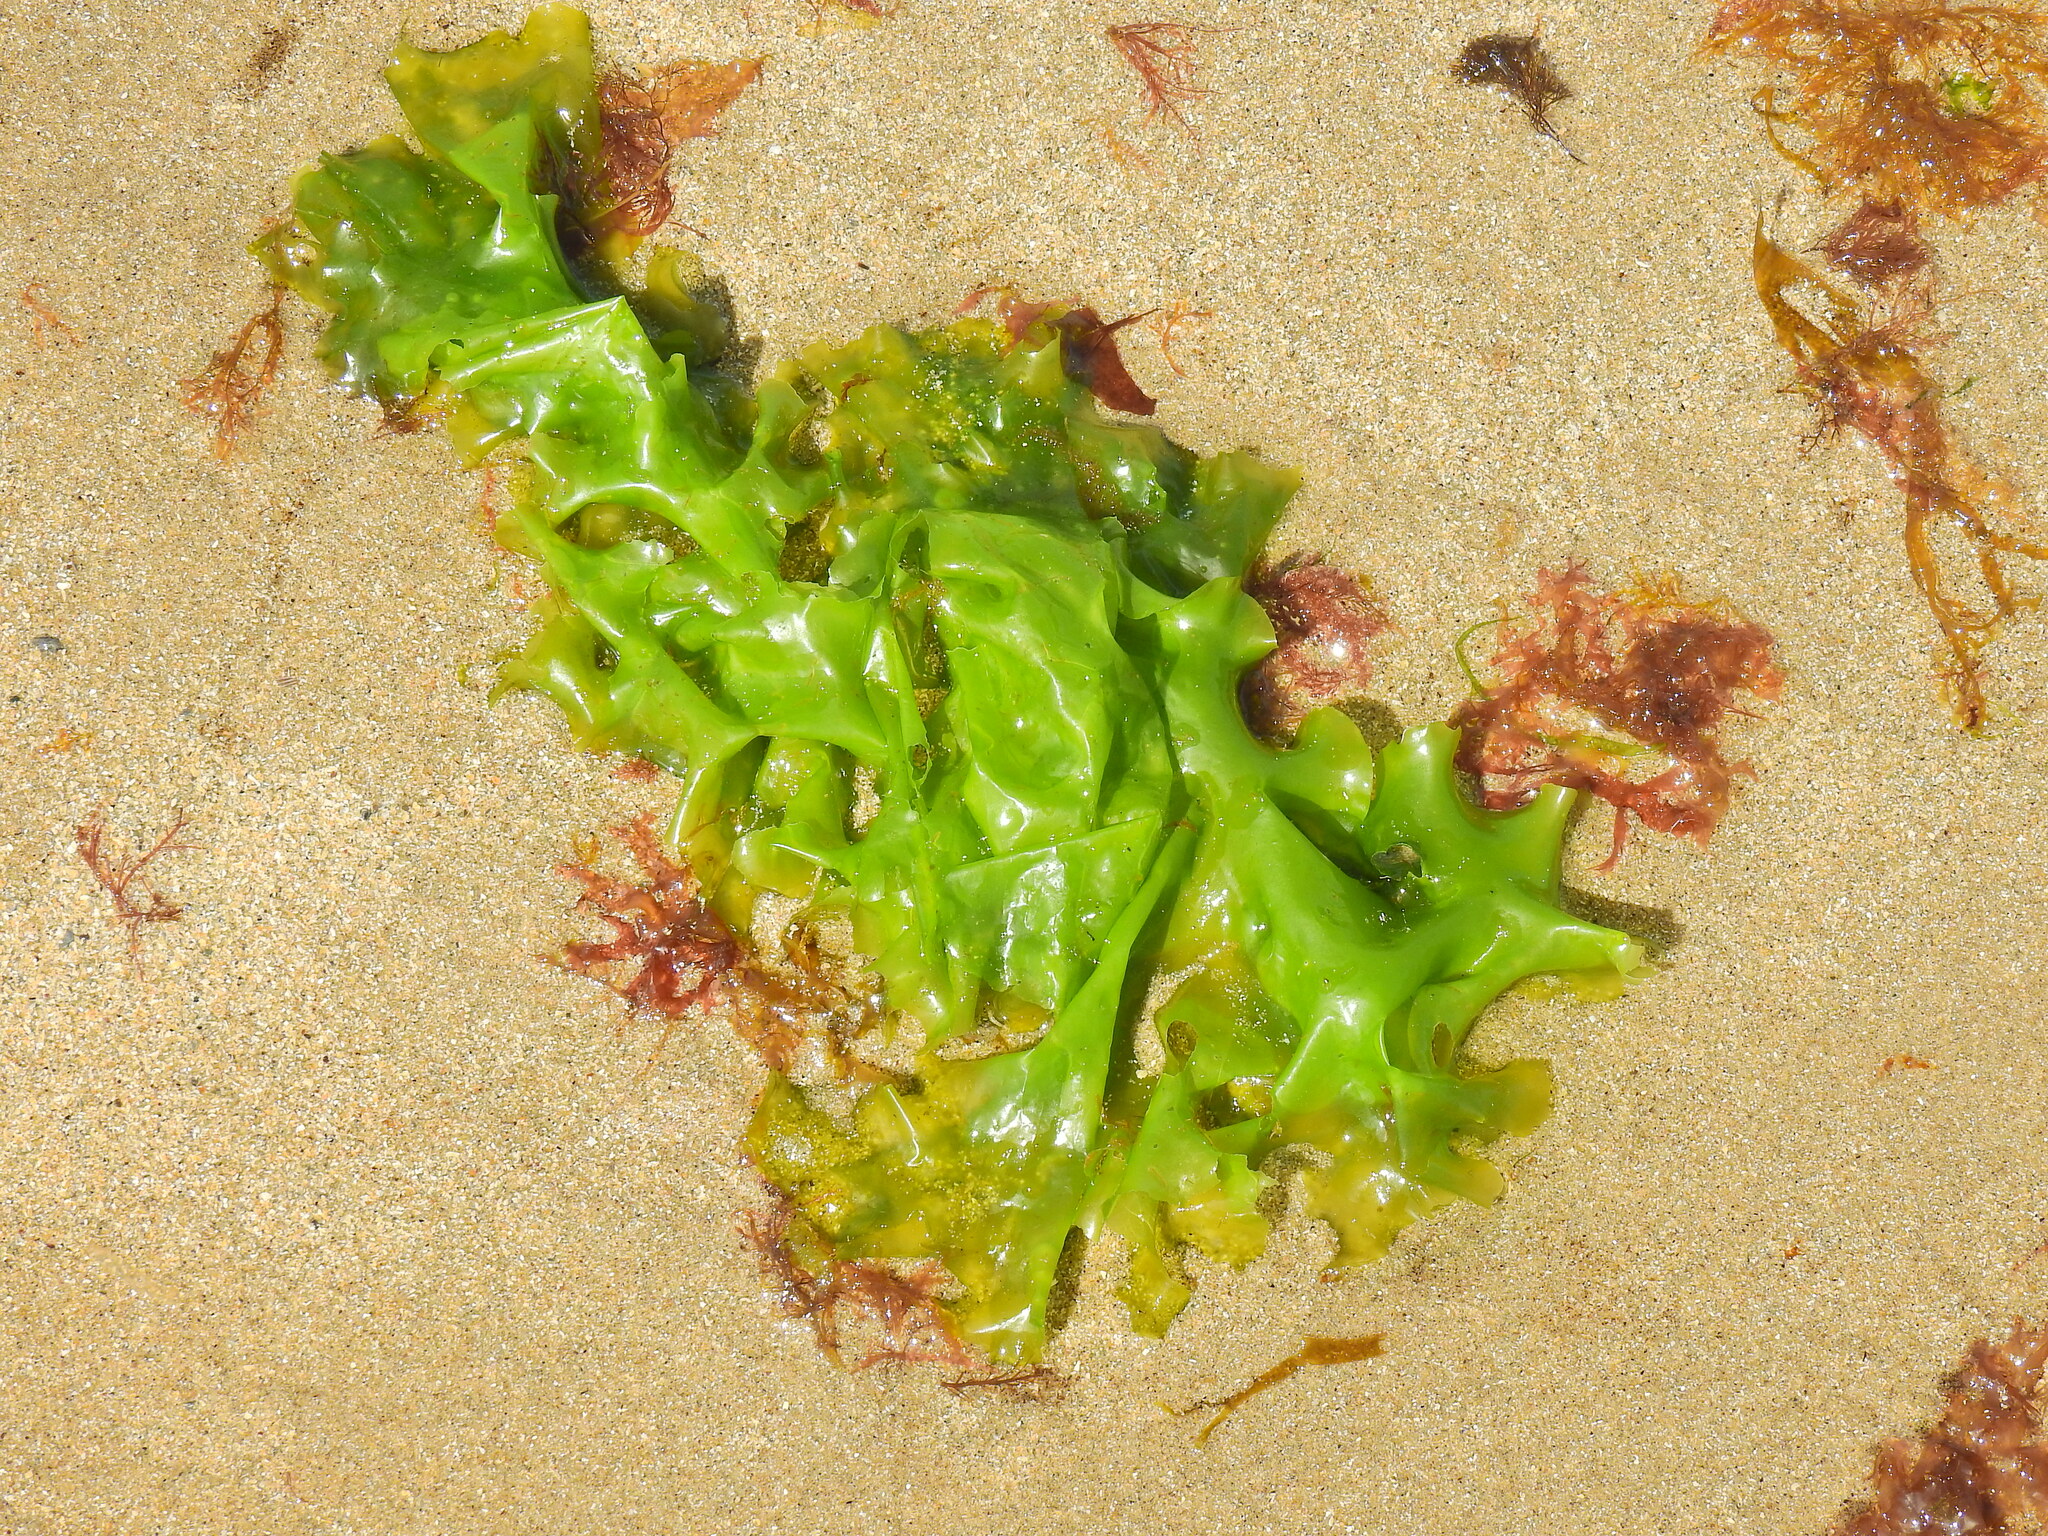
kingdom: Plantae
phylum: Chlorophyta
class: Ulvophyceae
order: Ulvales
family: Ulvaceae
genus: Ulva
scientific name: Ulva lactuca
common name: Sea lettuce
